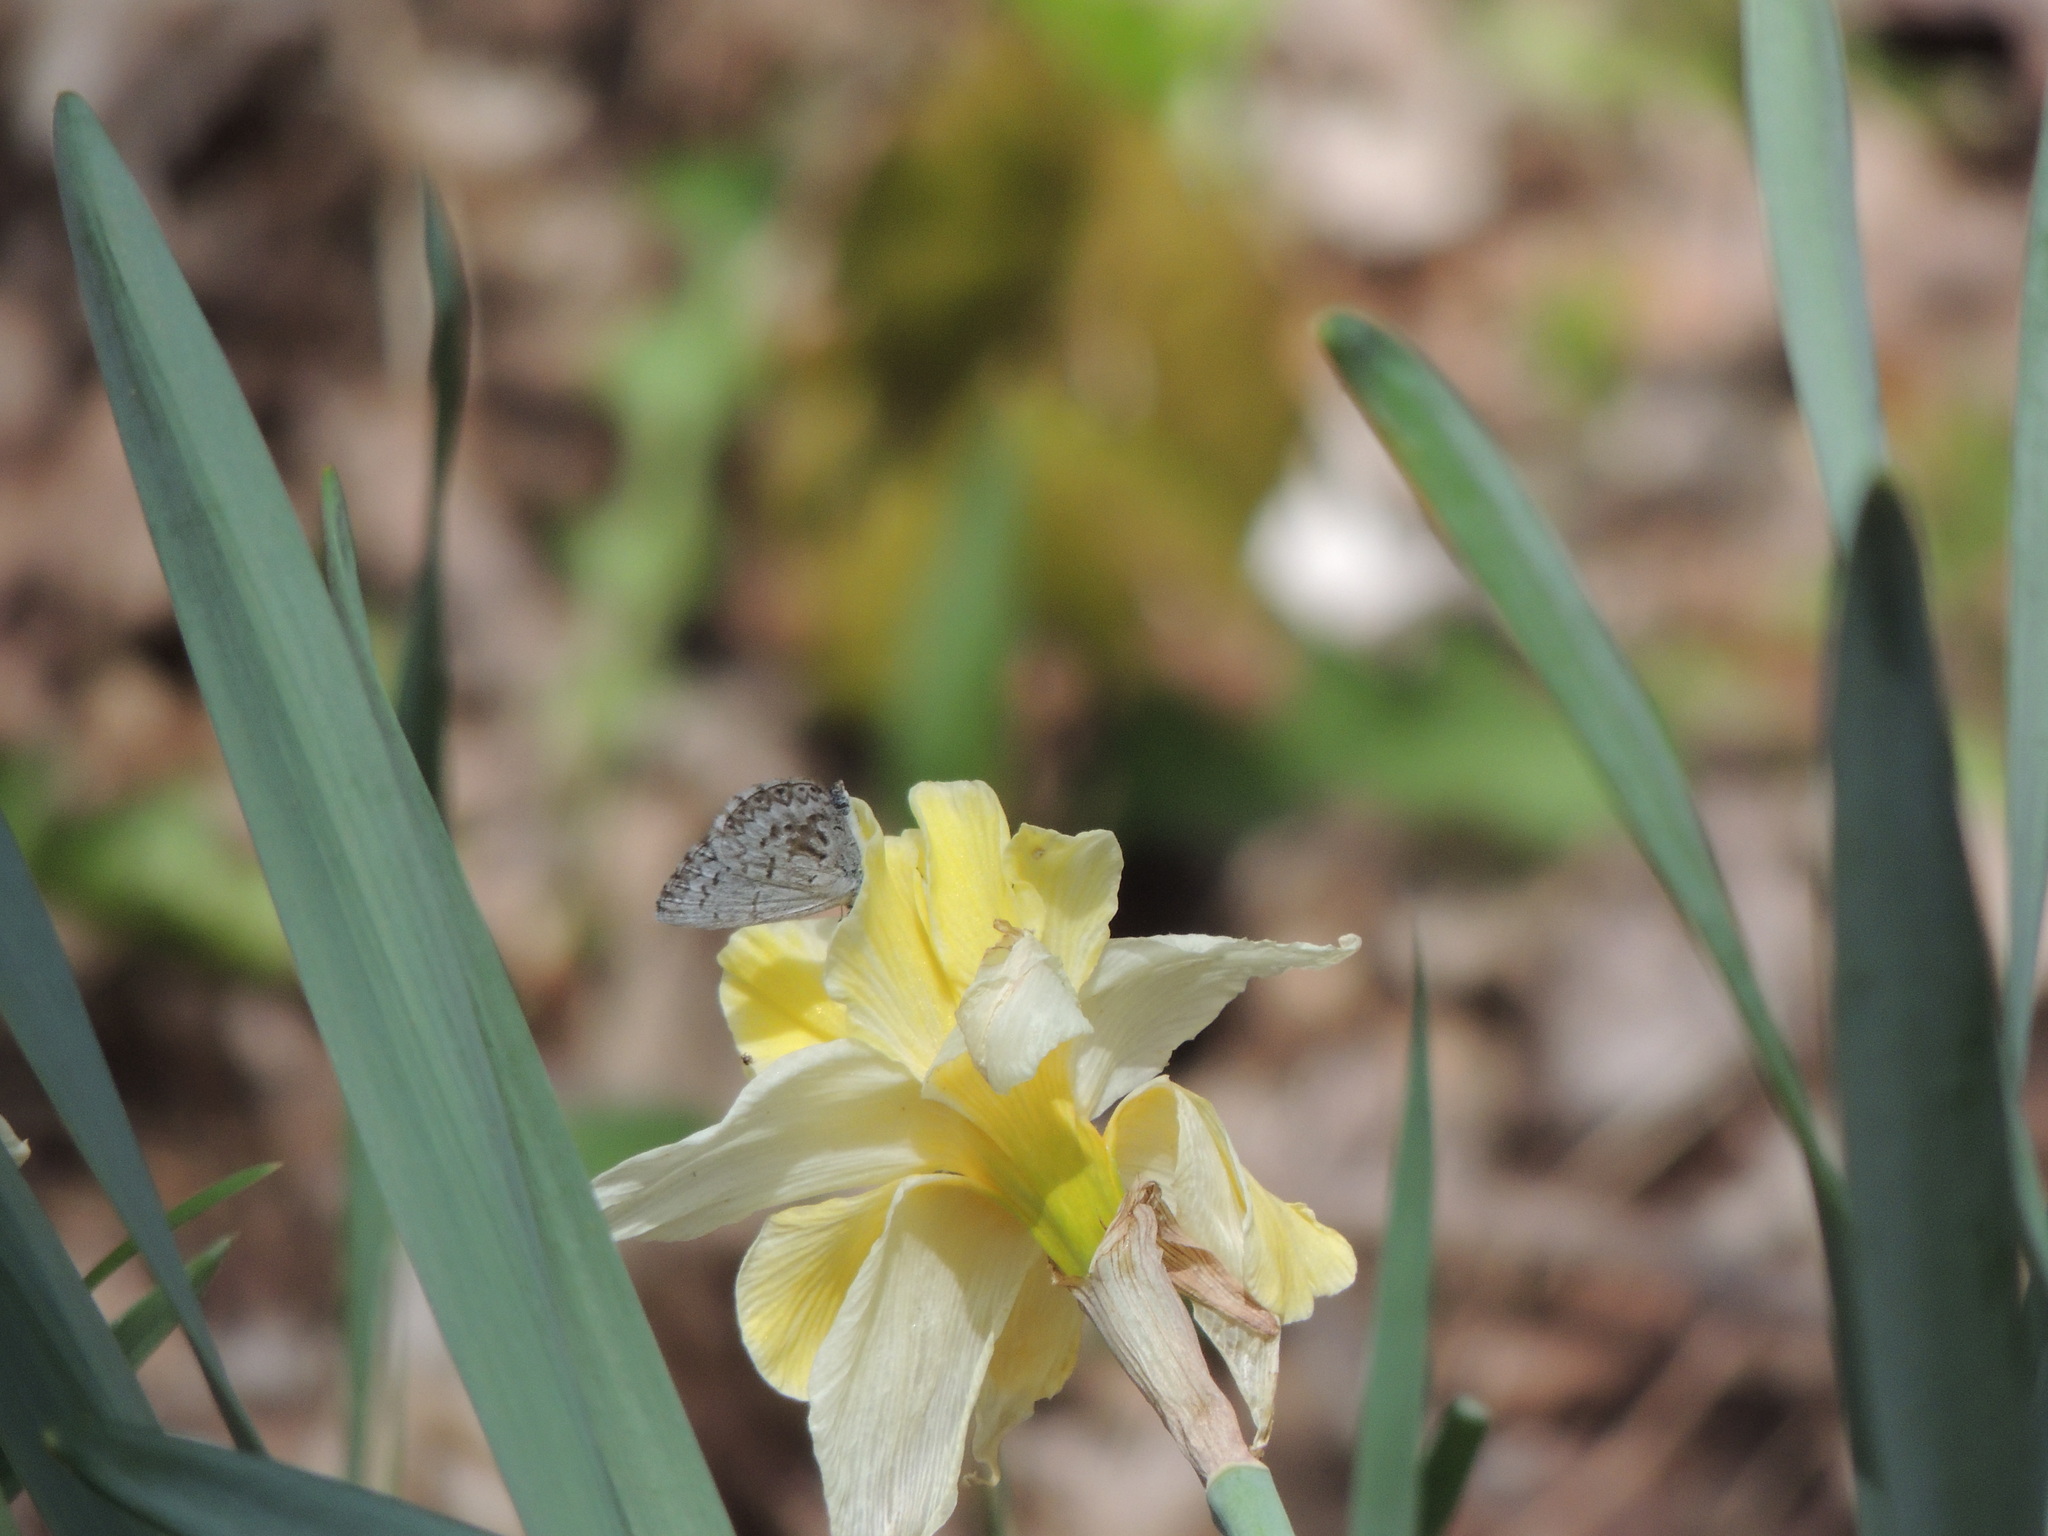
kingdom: Animalia
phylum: Arthropoda
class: Insecta
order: Lepidoptera
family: Lycaenidae
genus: Celastrina
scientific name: Celastrina lucia
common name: Lucia azure
